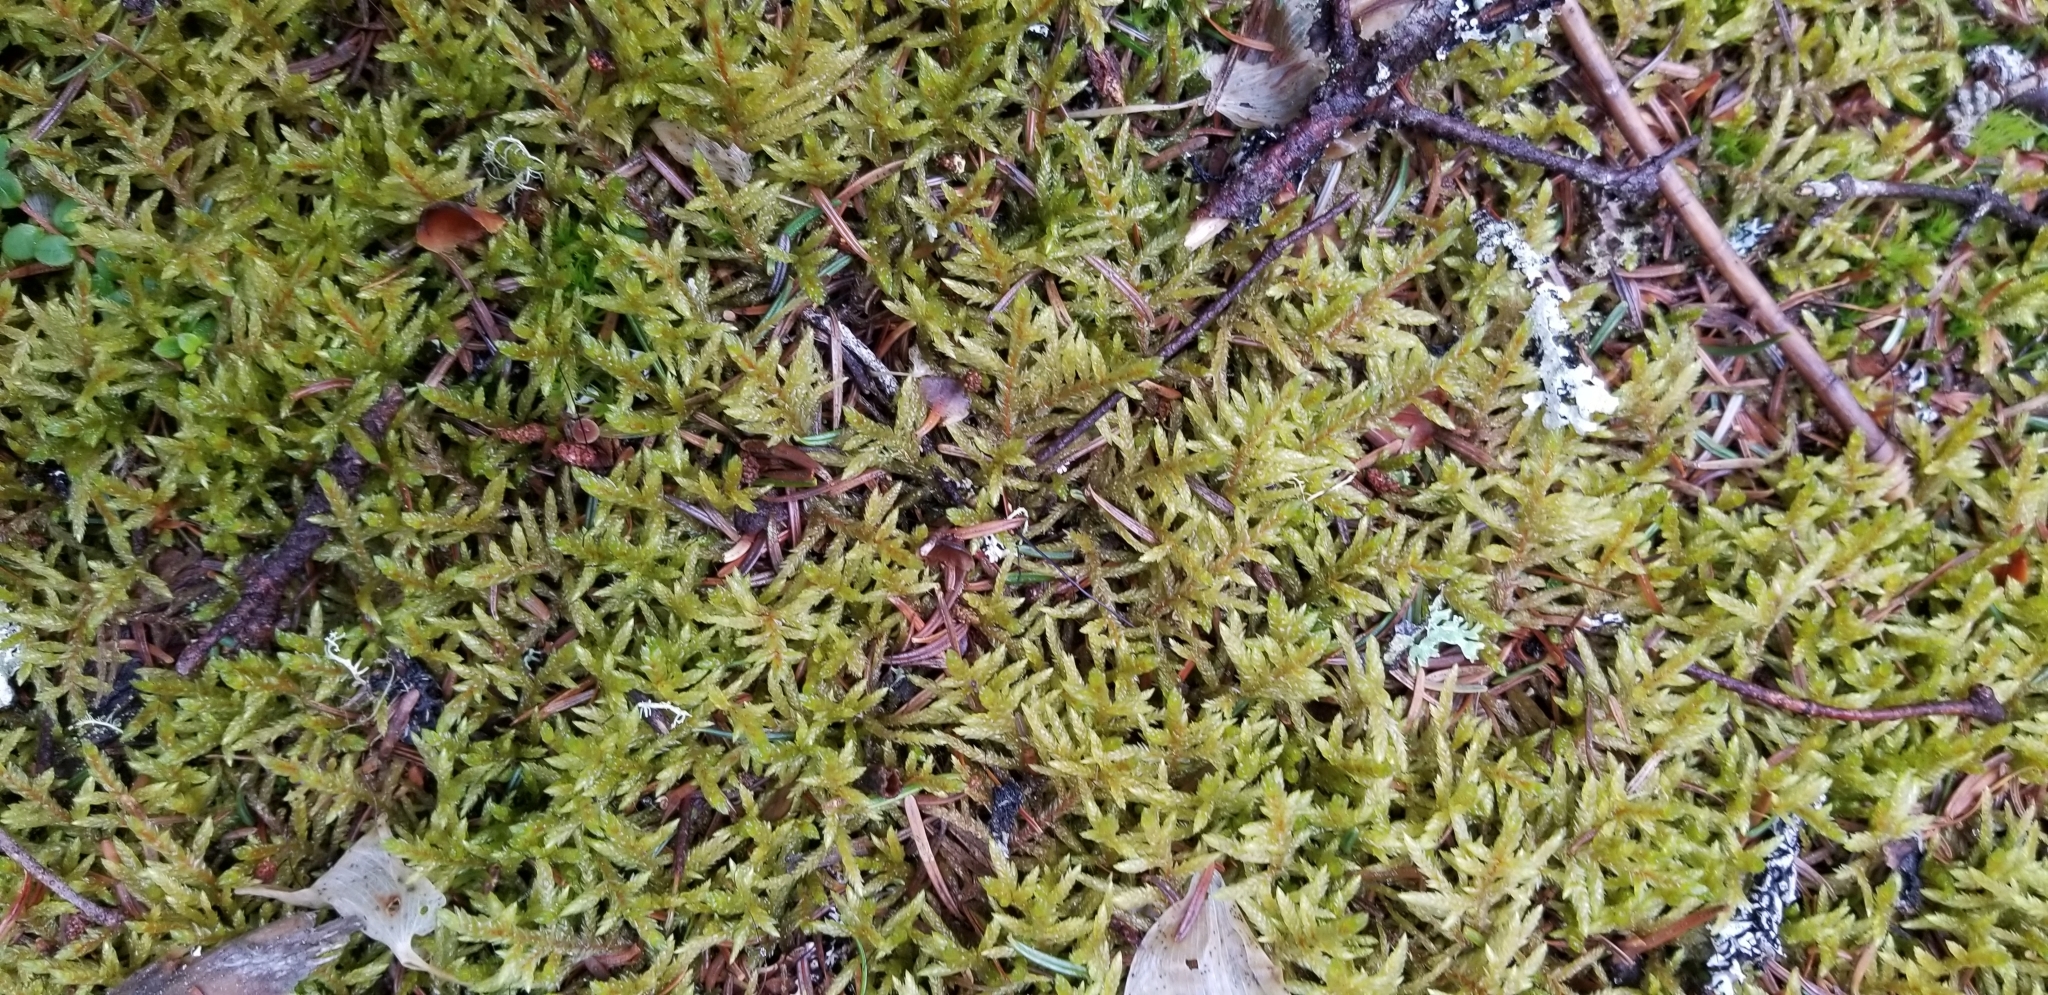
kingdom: Plantae
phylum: Bryophyta
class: Bryopsida
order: Hypnales
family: Hylocomiaceae
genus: Pleurozium
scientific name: Pleurozium schreberi
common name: Red-stemmed feather moss
